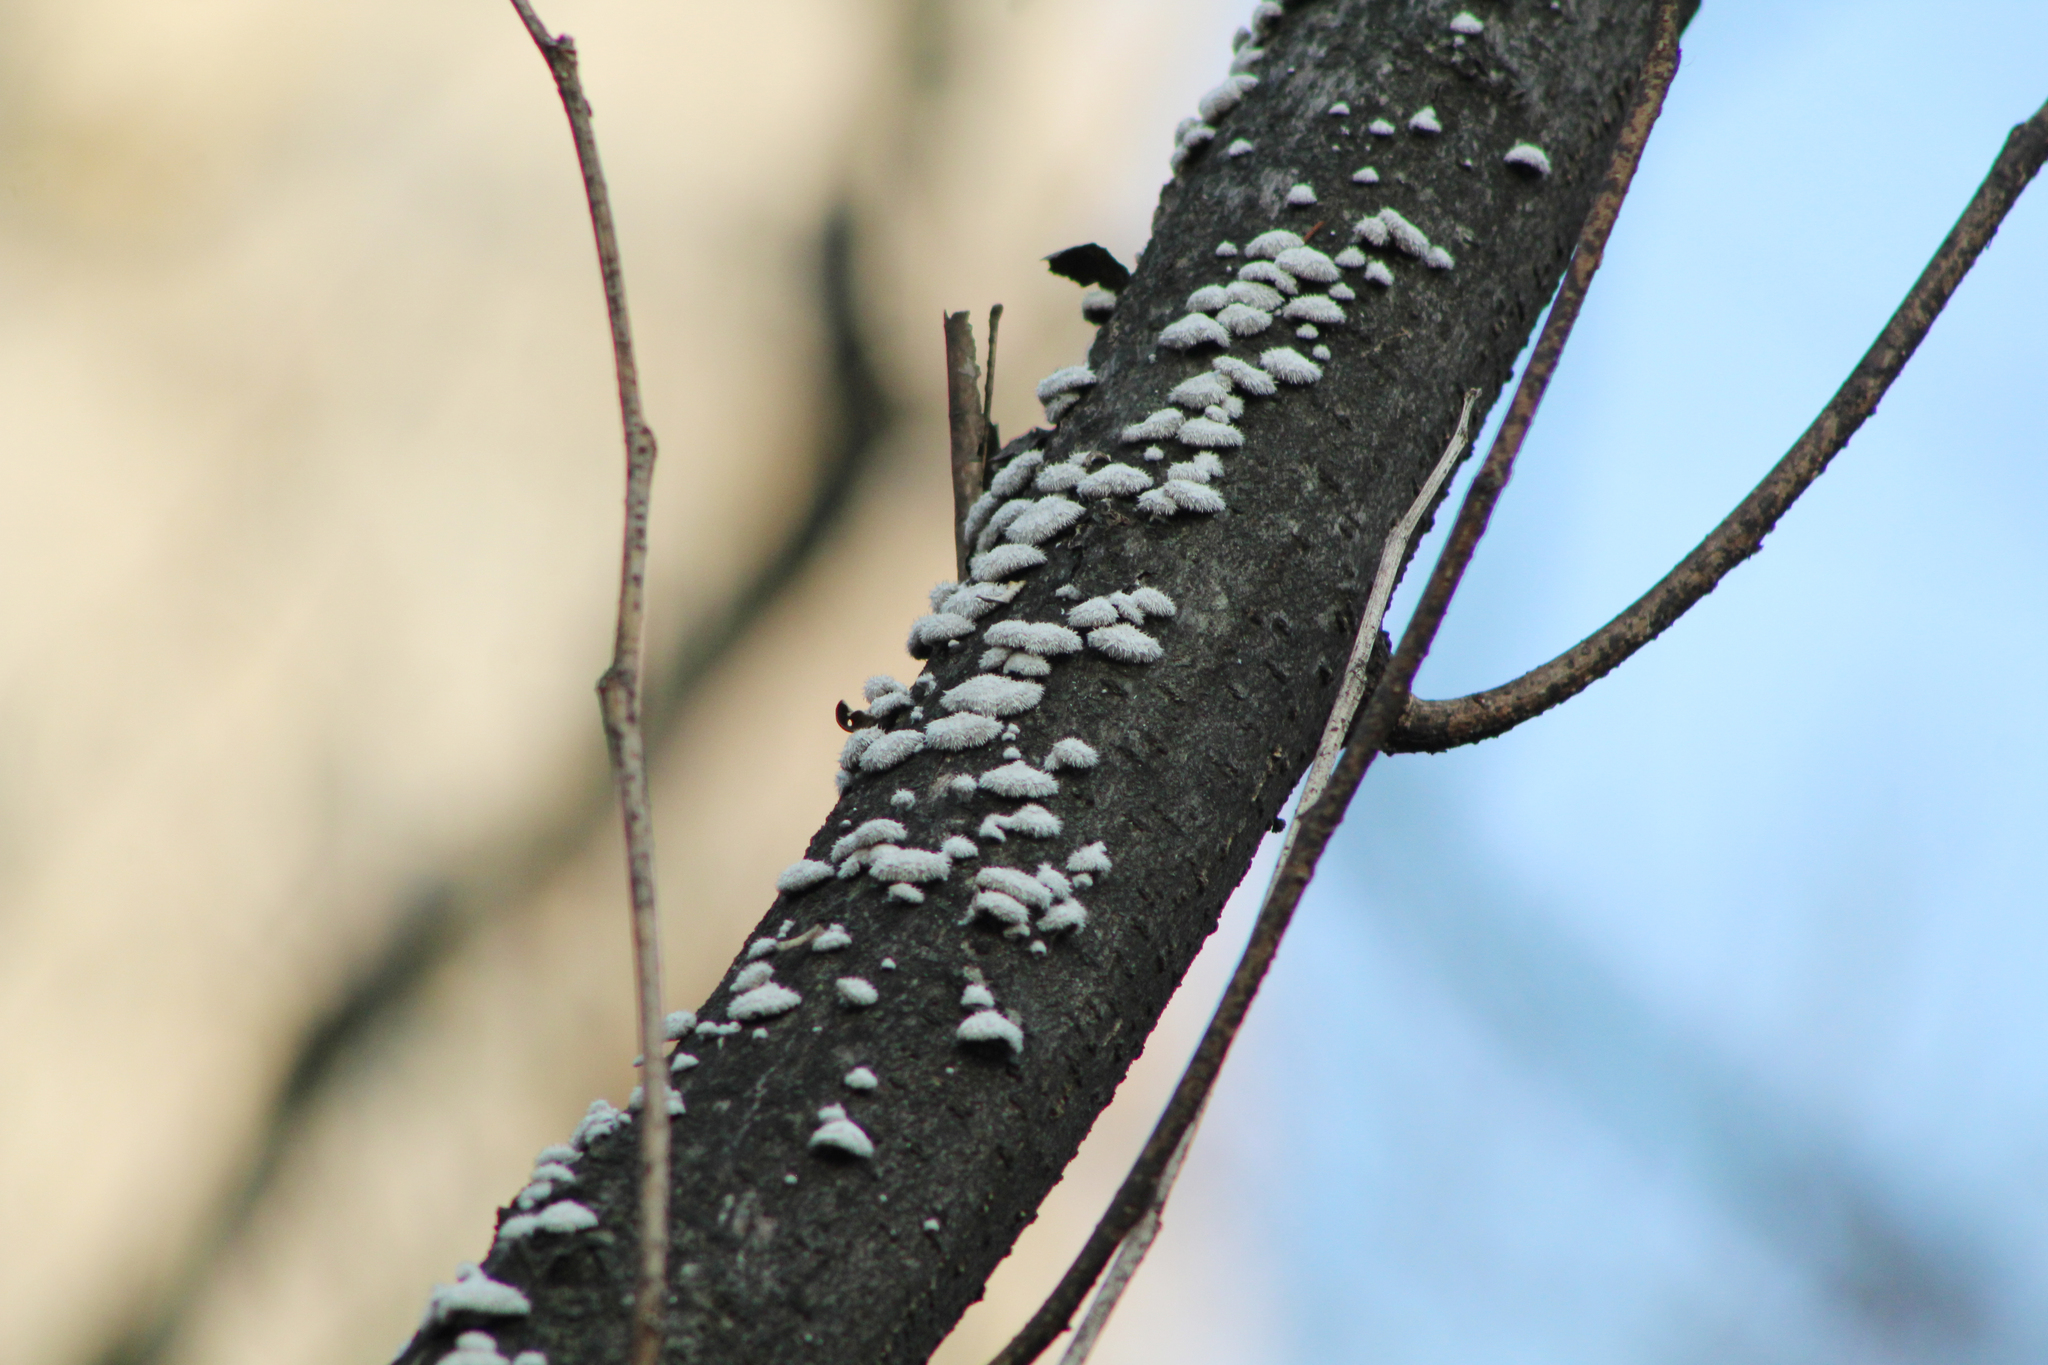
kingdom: Fungi
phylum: Basidiomycota
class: Agaricomycetes
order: Agaricales
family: Schizophyllaceae
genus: Schizophyllum
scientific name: Schizophyllum commune
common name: Common porecrust
